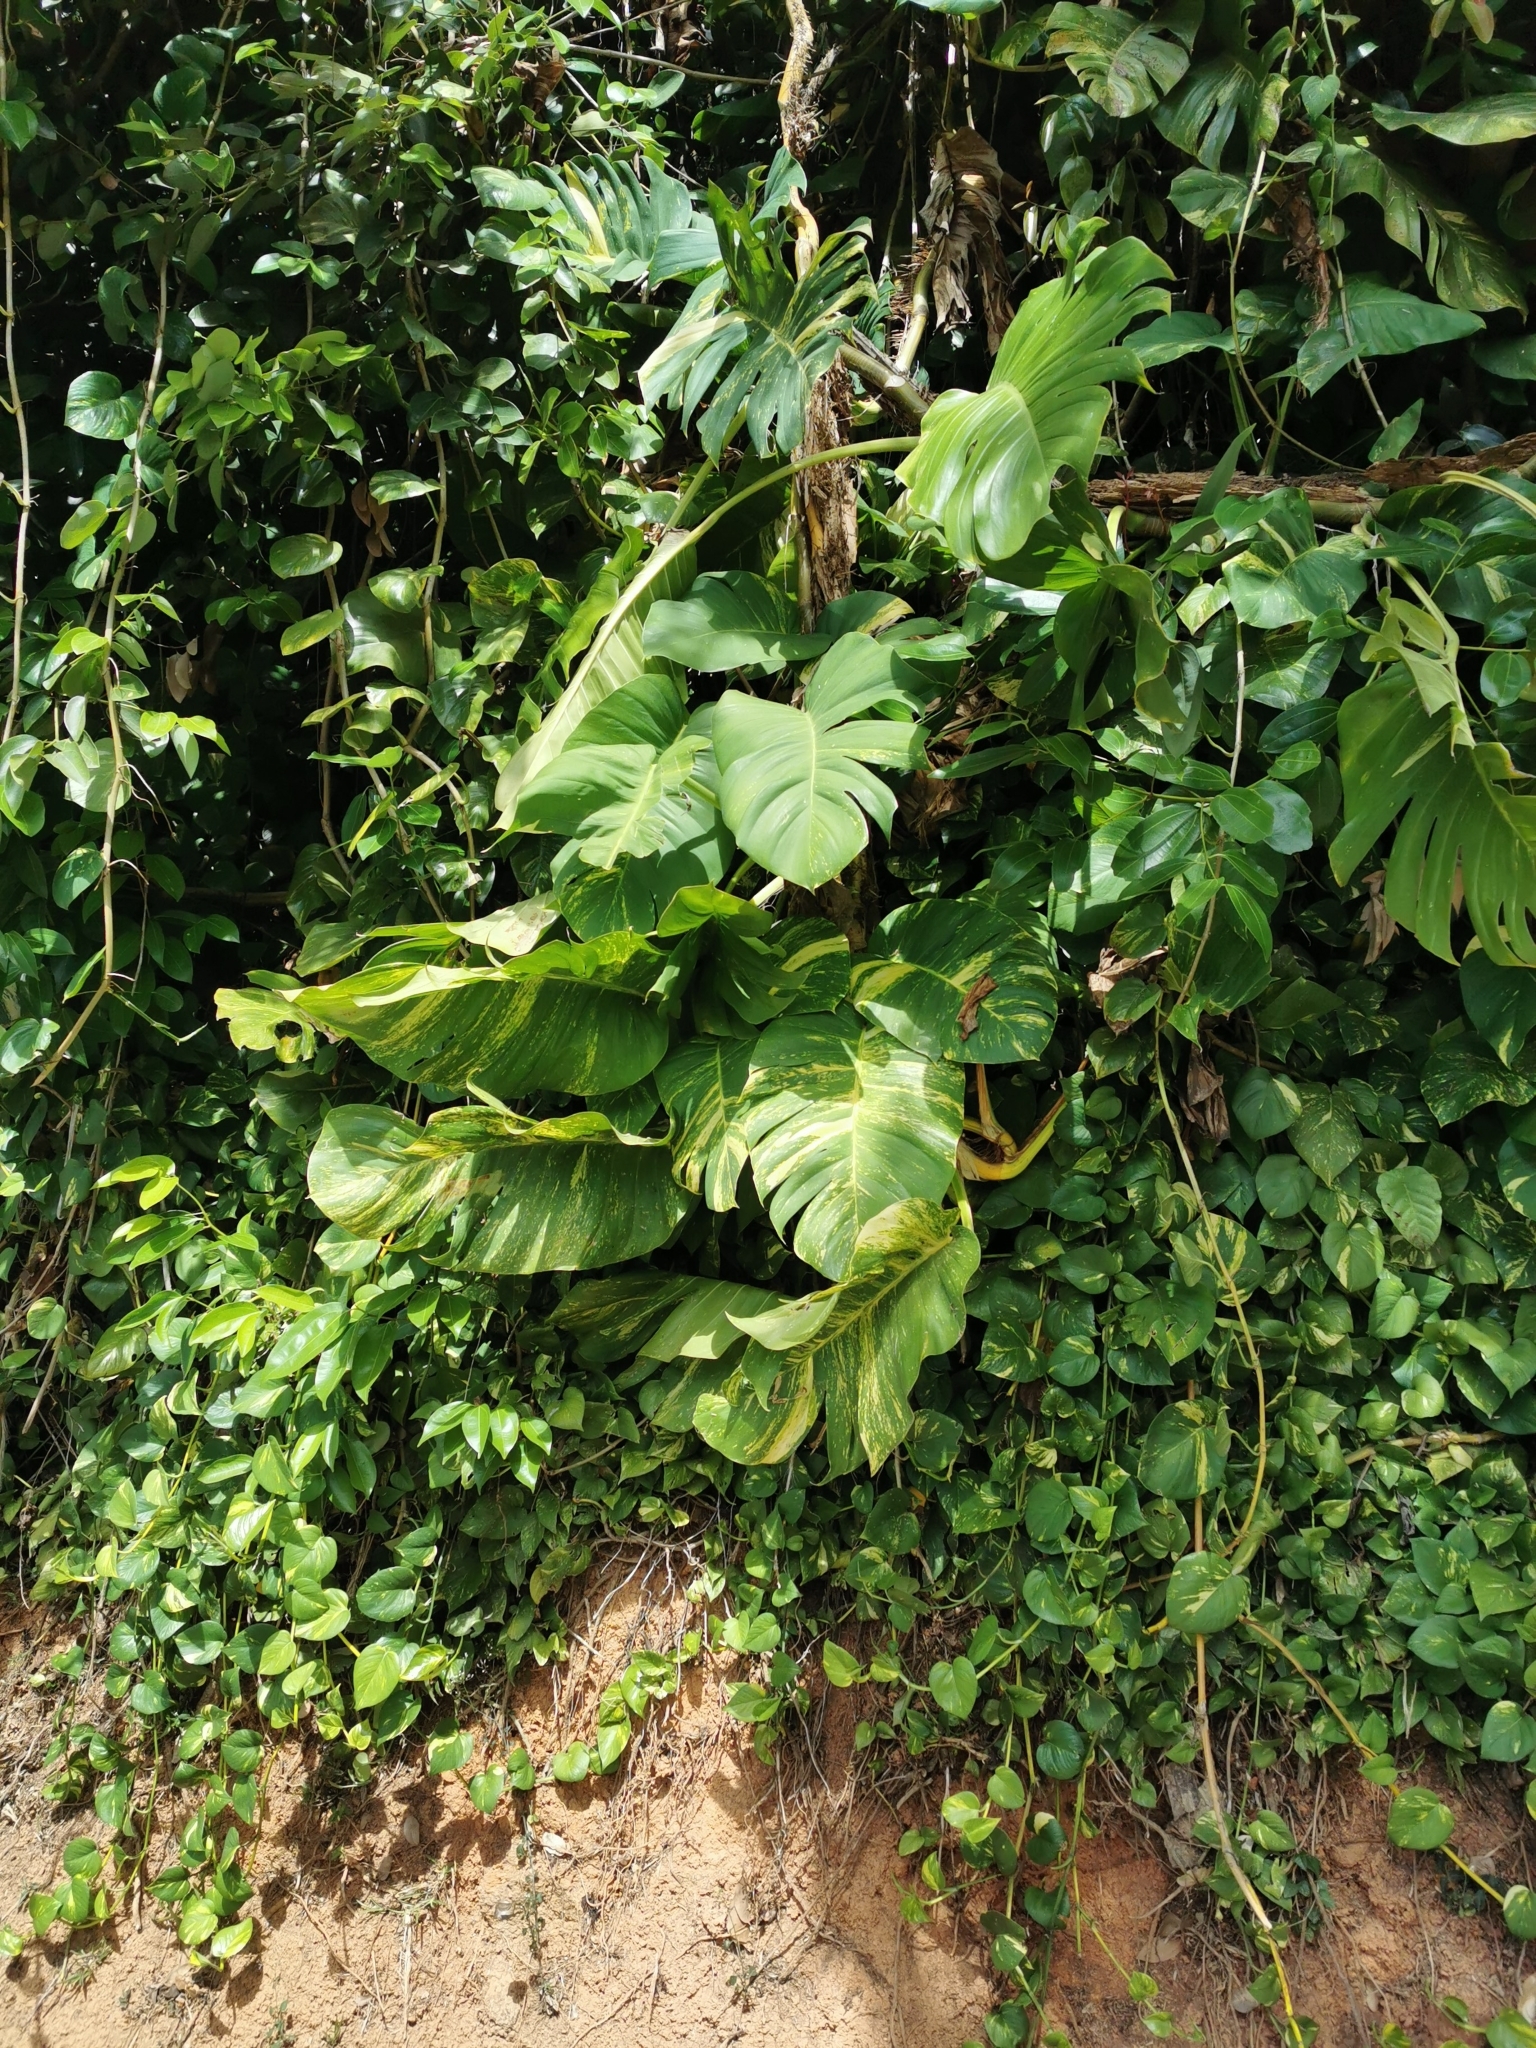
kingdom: Plantae
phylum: Tracheophyta
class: Liliopsida
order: Alismatales
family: Araceae
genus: Epipremnum
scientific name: Epipremnum aureum
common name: Golden hunter's-robe
